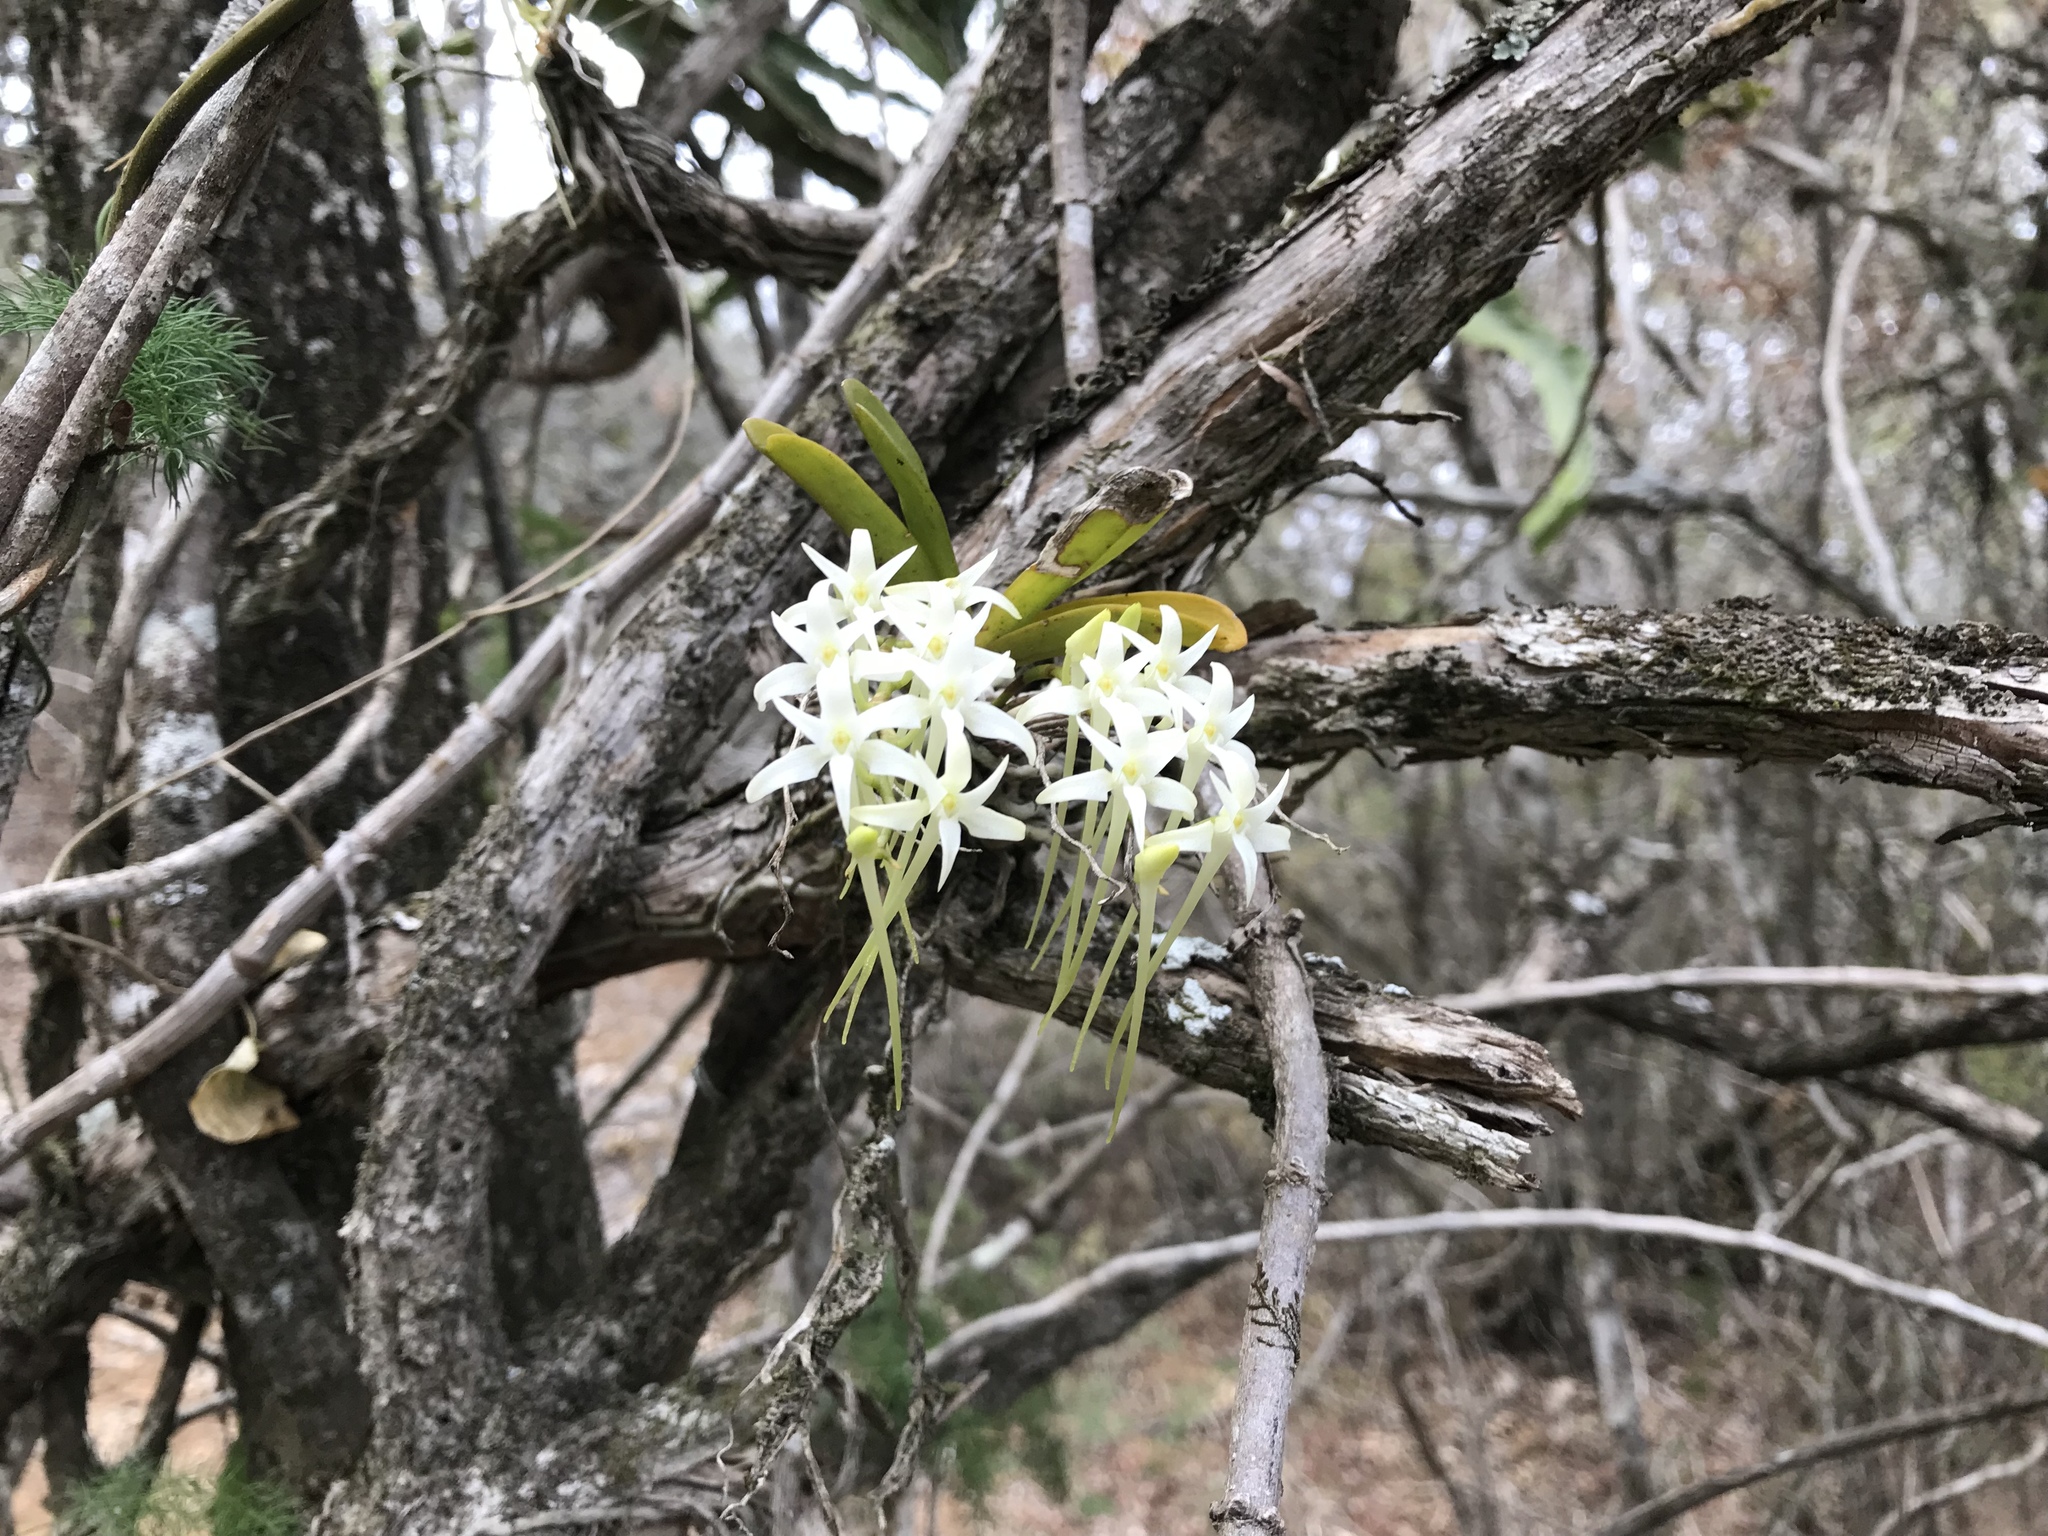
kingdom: Plantae
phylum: Tracheophyta
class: Liliopsida
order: Asparagales
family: Orchidaceae
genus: Mystacidium
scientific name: Mystacidium capense
